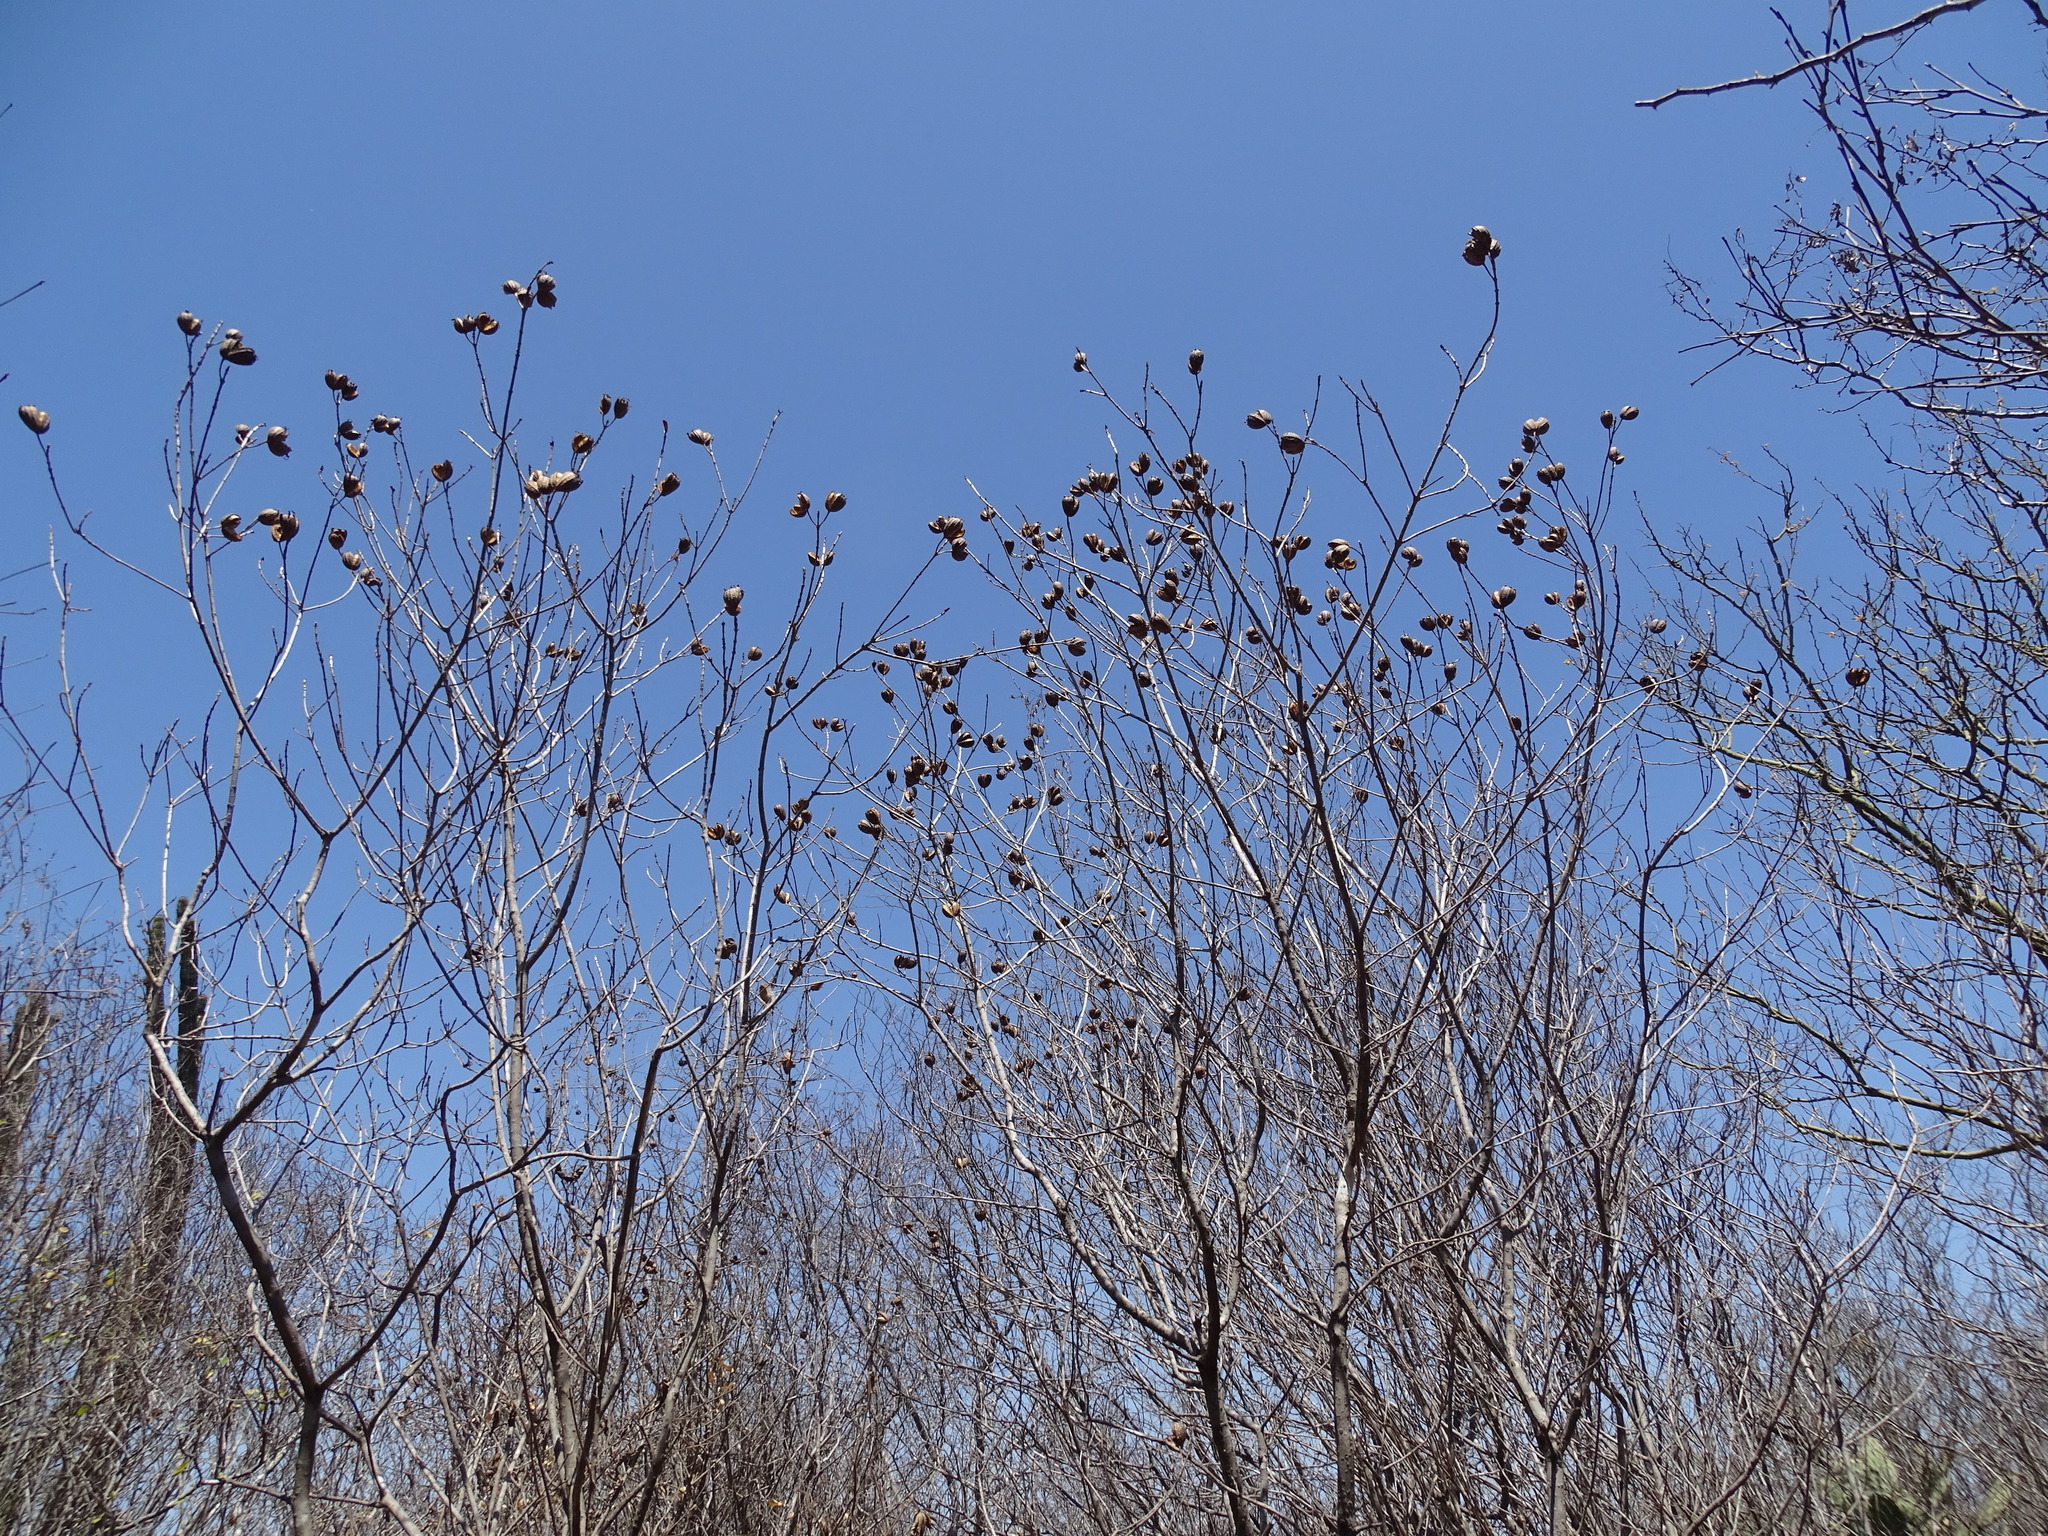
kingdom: Plantae
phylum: Tracheophyta
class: Magnoliopsida
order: Gentianales
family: Rubiaceae
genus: Hintonia
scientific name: Hintonia latiflora
